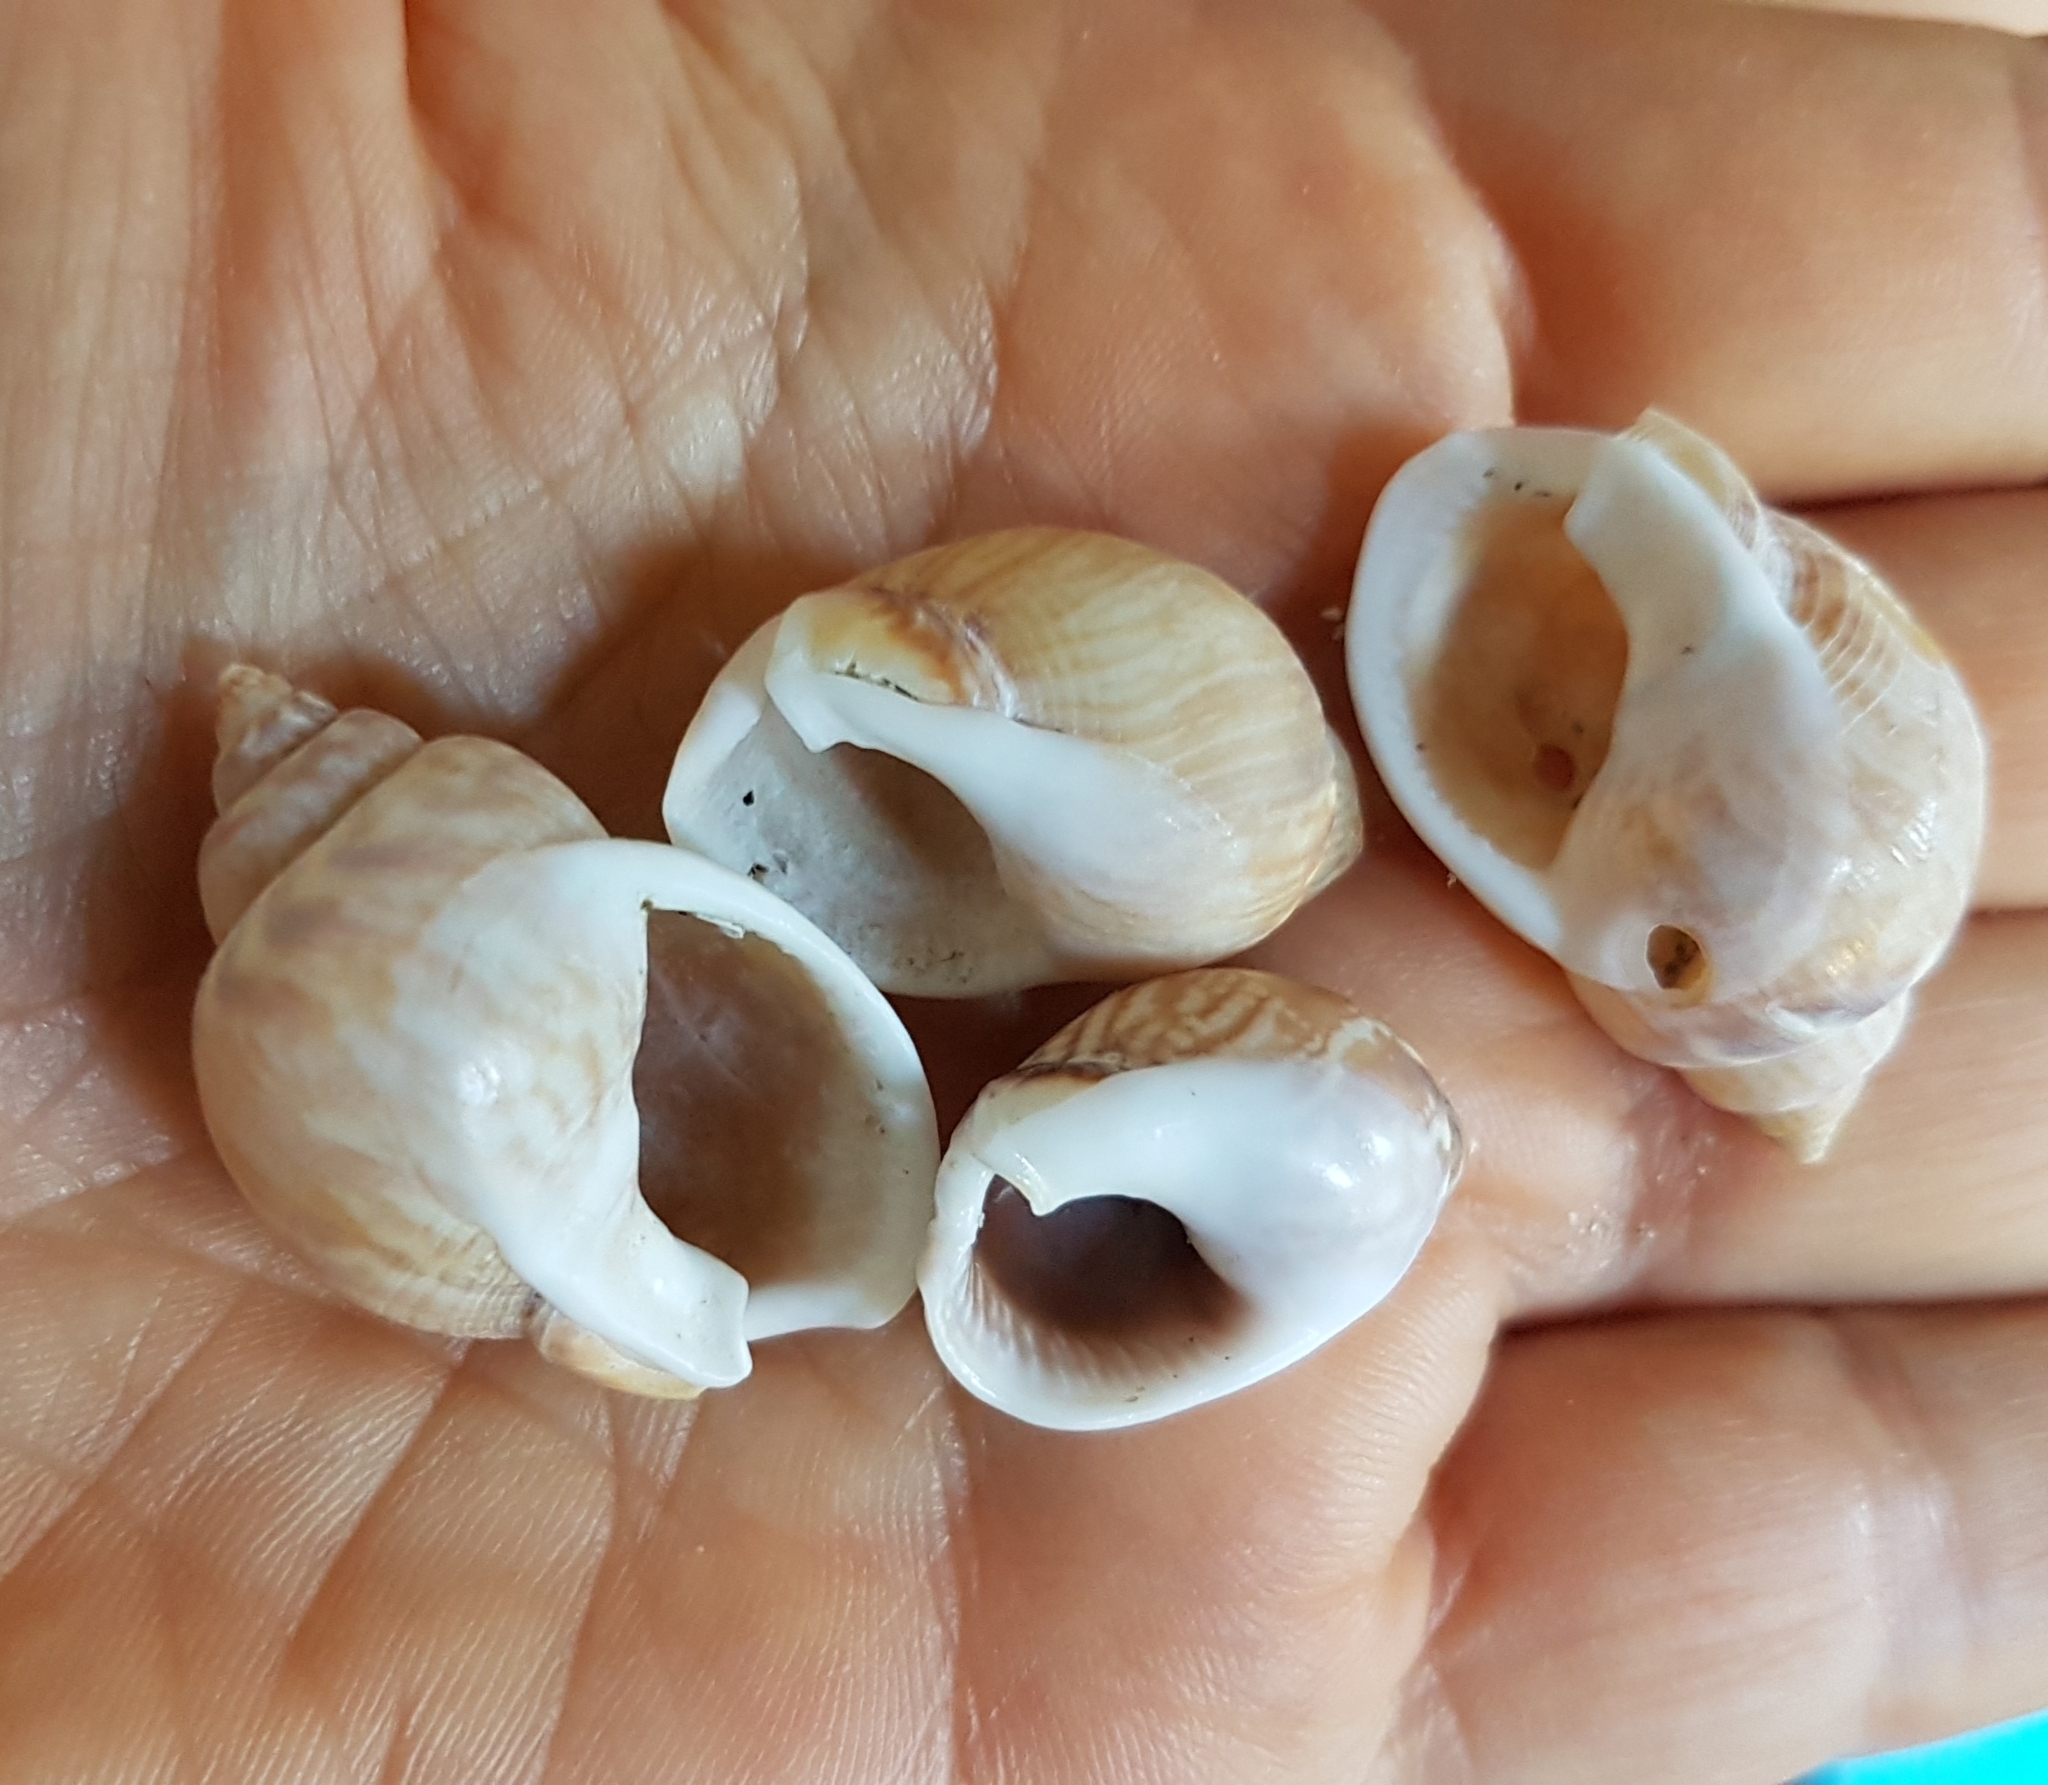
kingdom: Animalia
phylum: Mollusca
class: Gastropoda
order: Neogastropoda
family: Nassariidae
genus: Tritia
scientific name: Tritia mutabilis
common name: Mutable nassa
